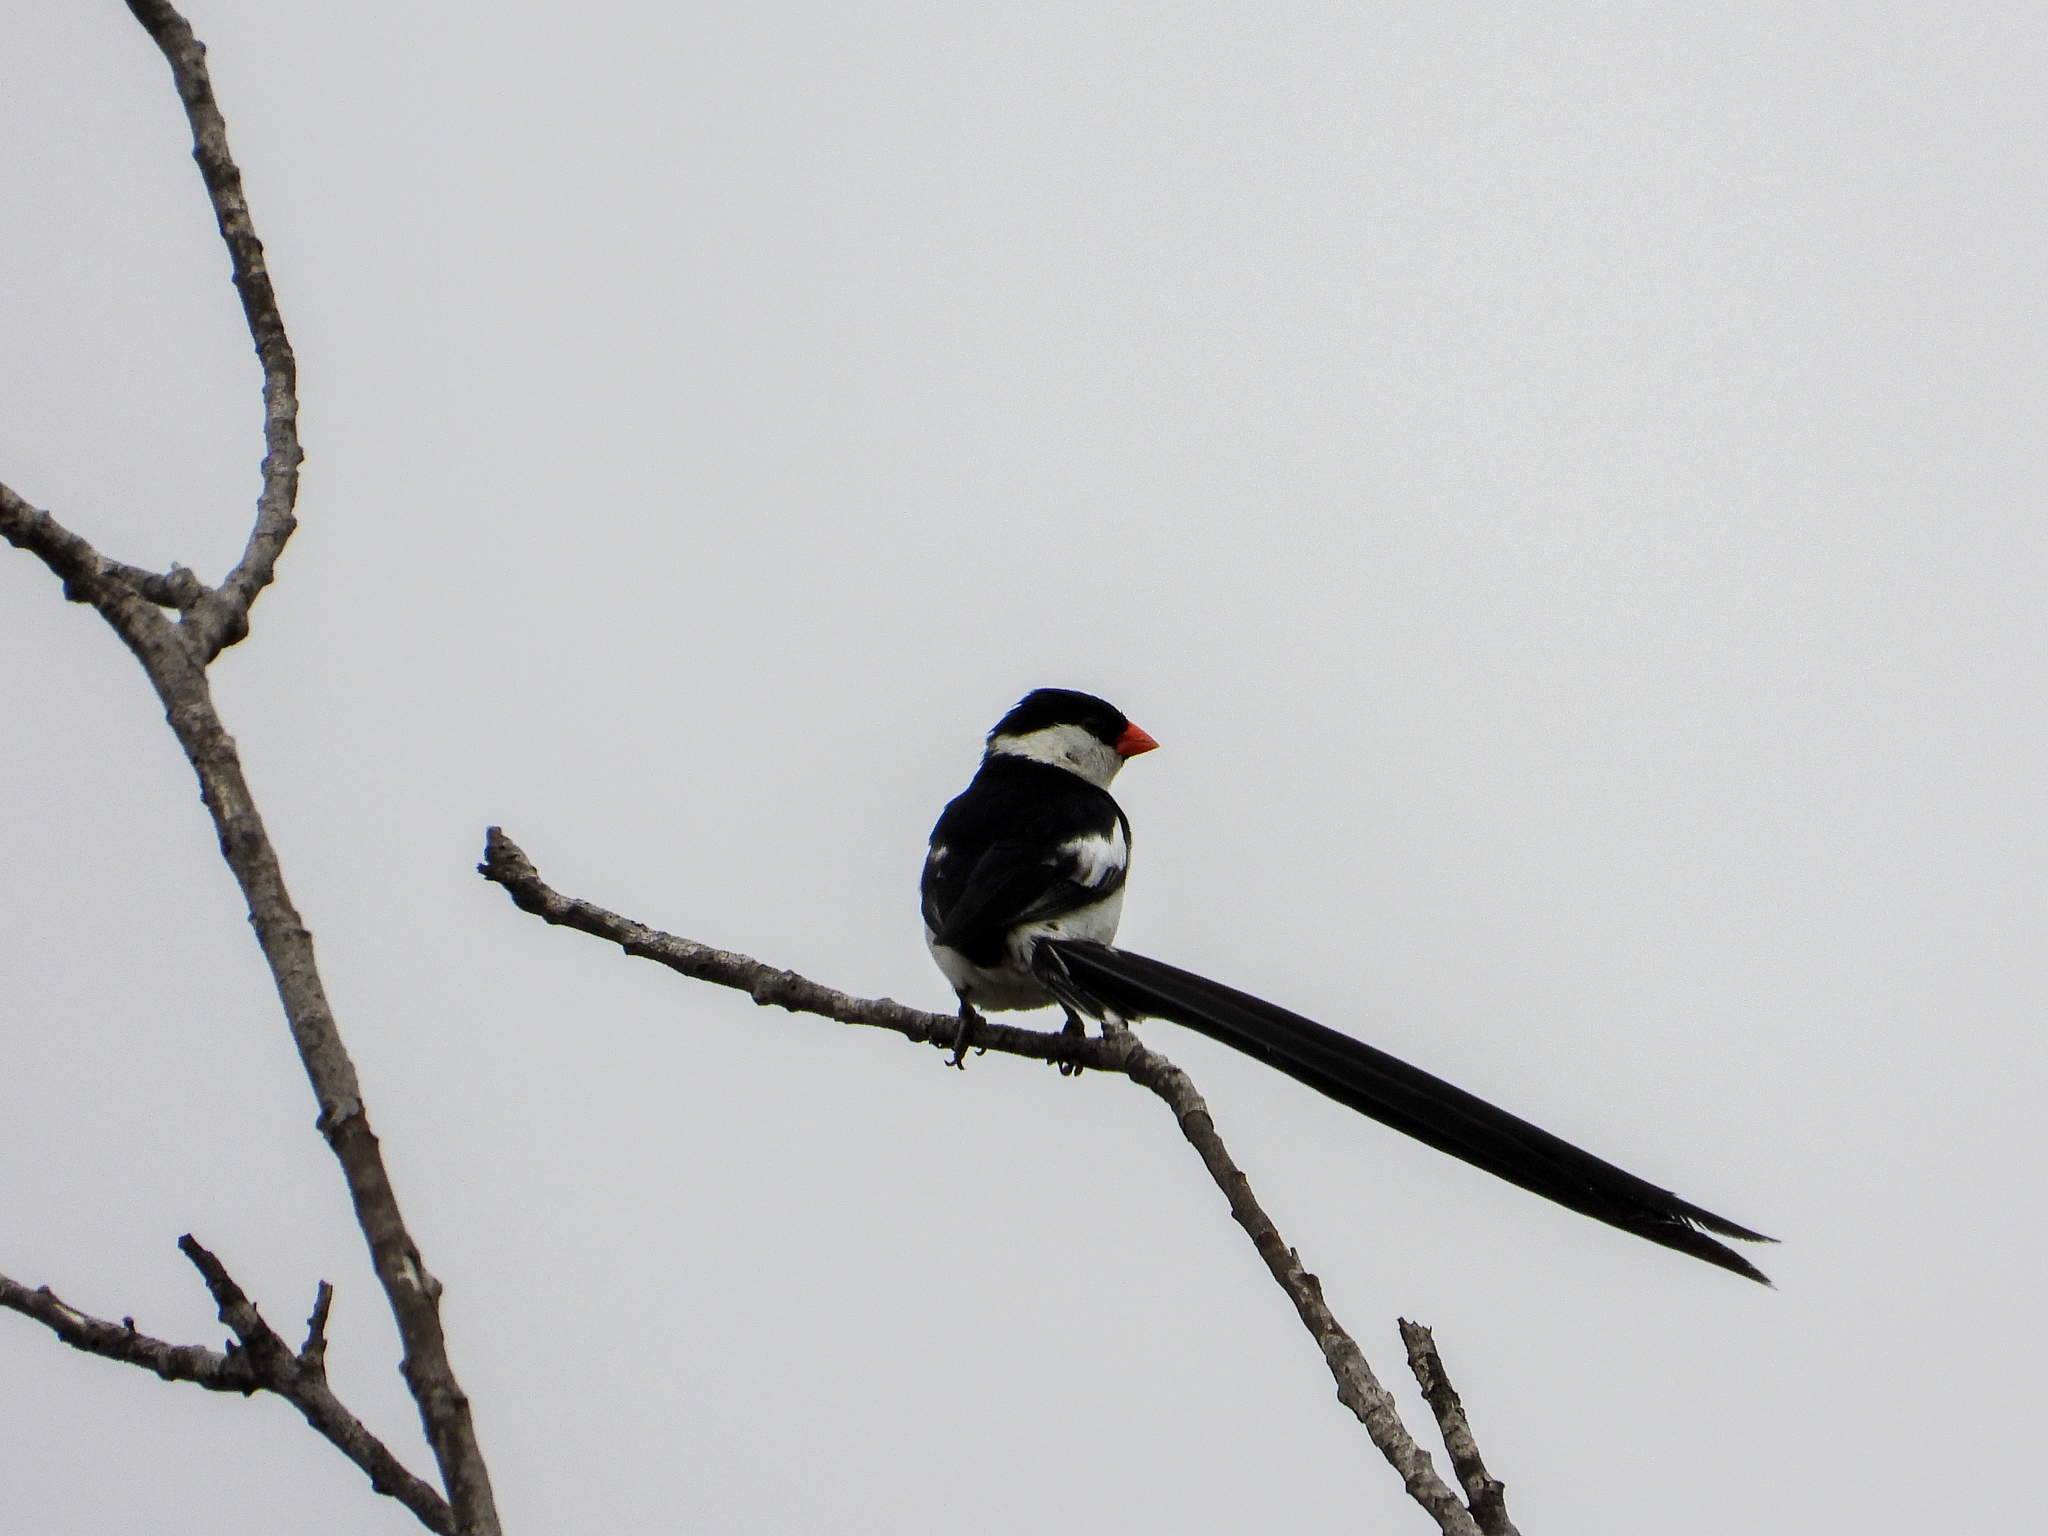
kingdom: Animalia
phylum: Chordata
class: Aves
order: Passeriformes
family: Viduidae
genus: Vidua
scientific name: Vidua macroura
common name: Pin-tailed whydah
